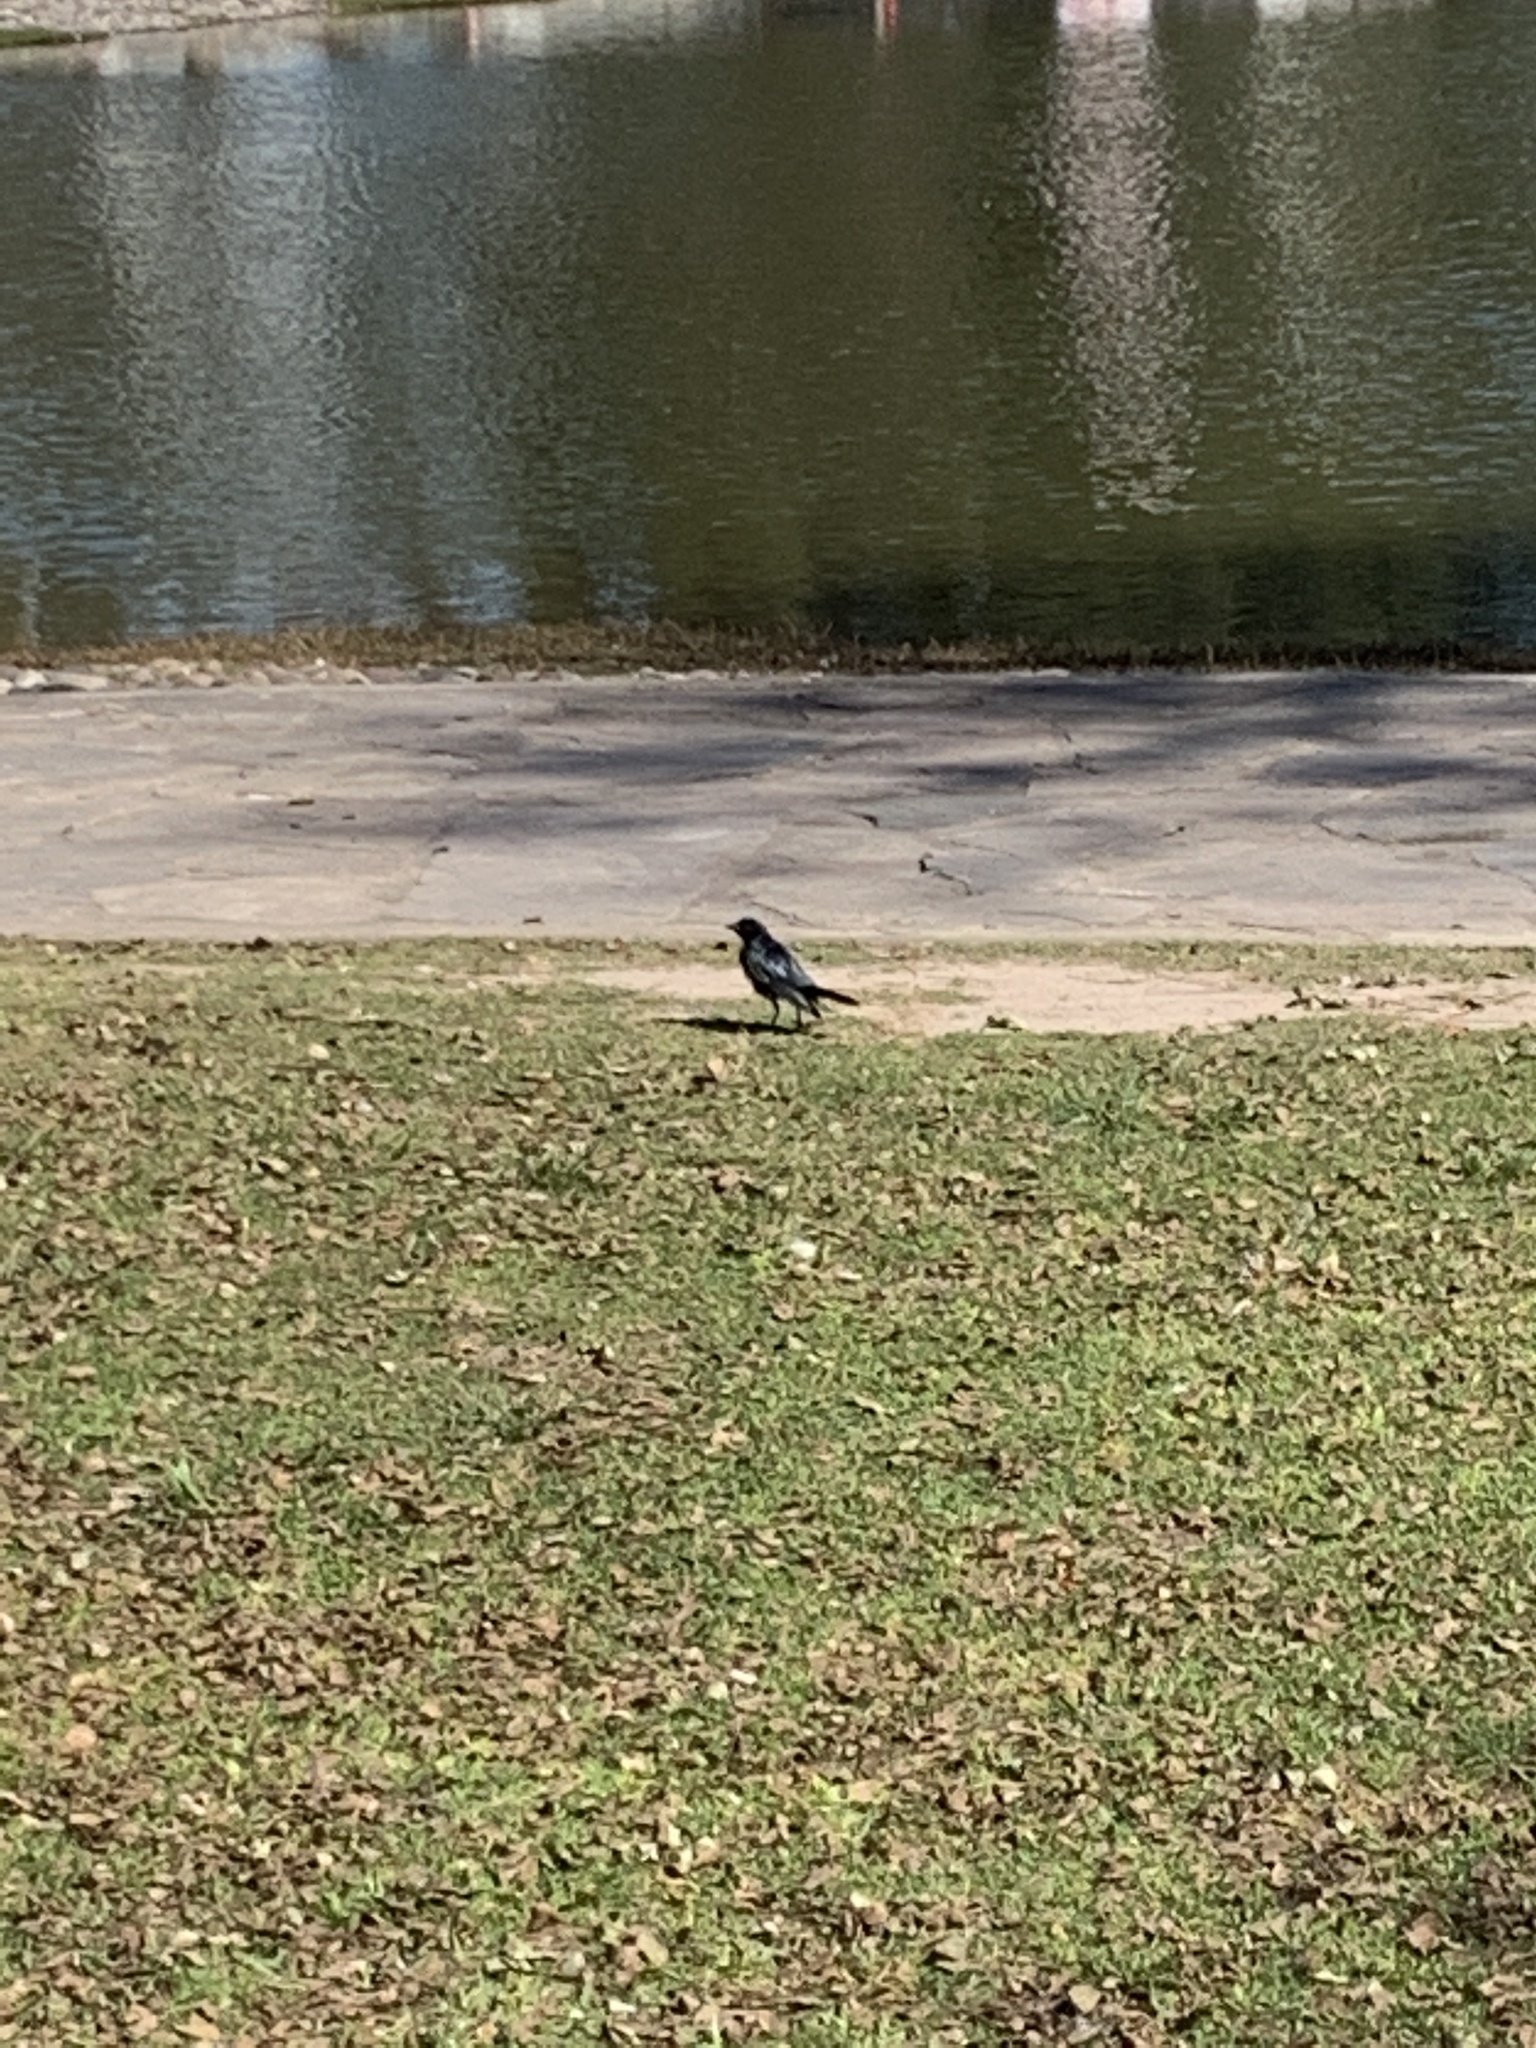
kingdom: Animalia
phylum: Chordata
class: Aves
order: Passeriformes
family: Icteridae
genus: Molothrus
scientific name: Molothrus bonariensis
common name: Shiny cowbird
